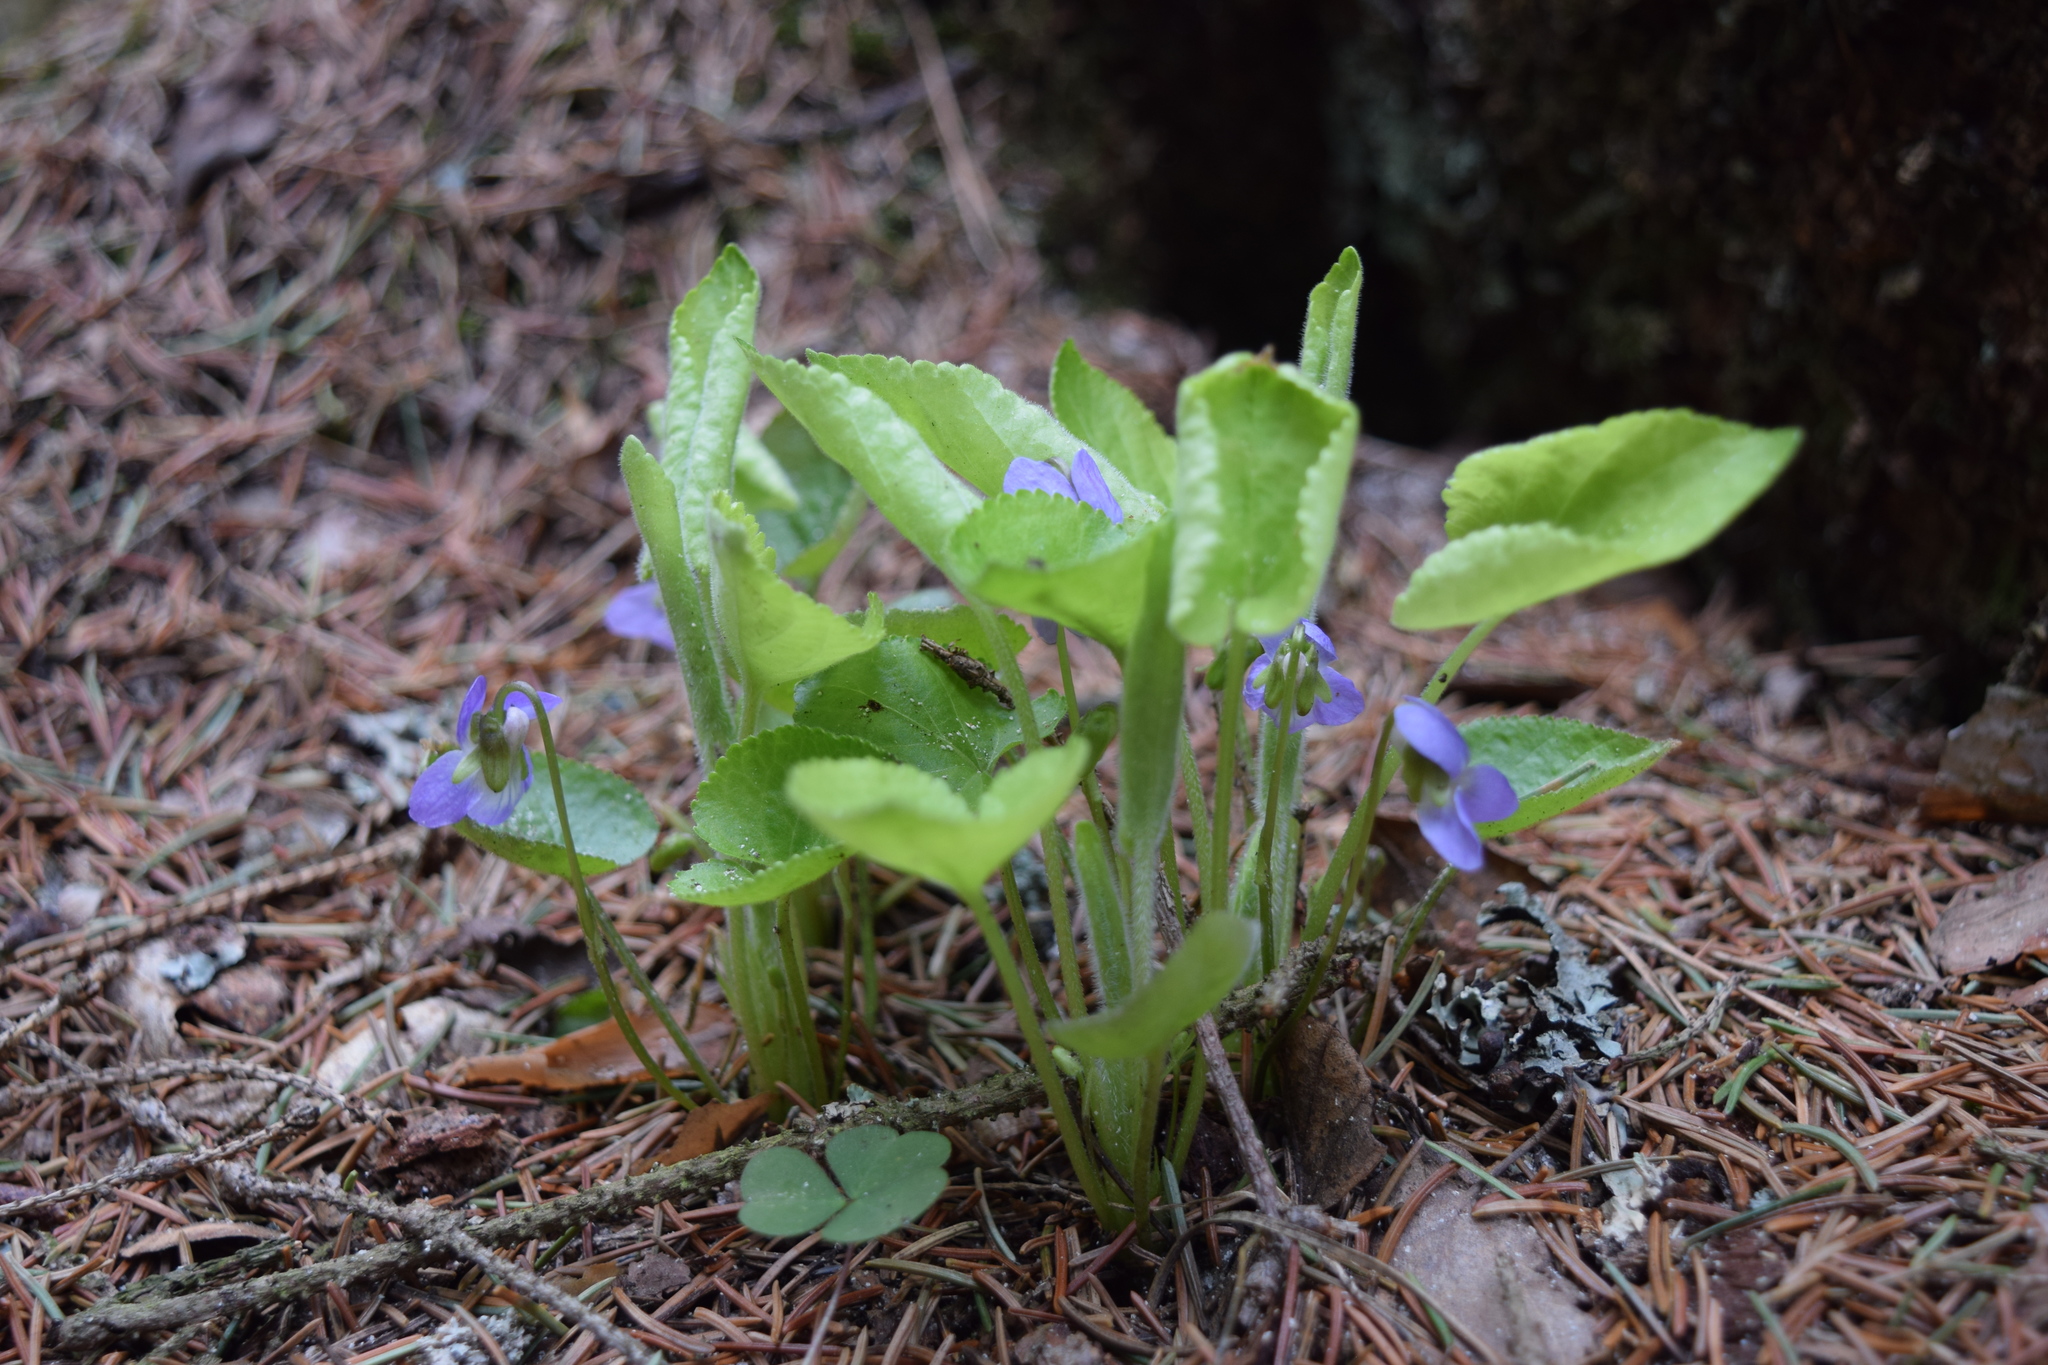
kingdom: Plantae
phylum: Tracheophyta
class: Magnoliopsida
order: Malpighiales
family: Violaceae
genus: Viola
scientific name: Viola collina
